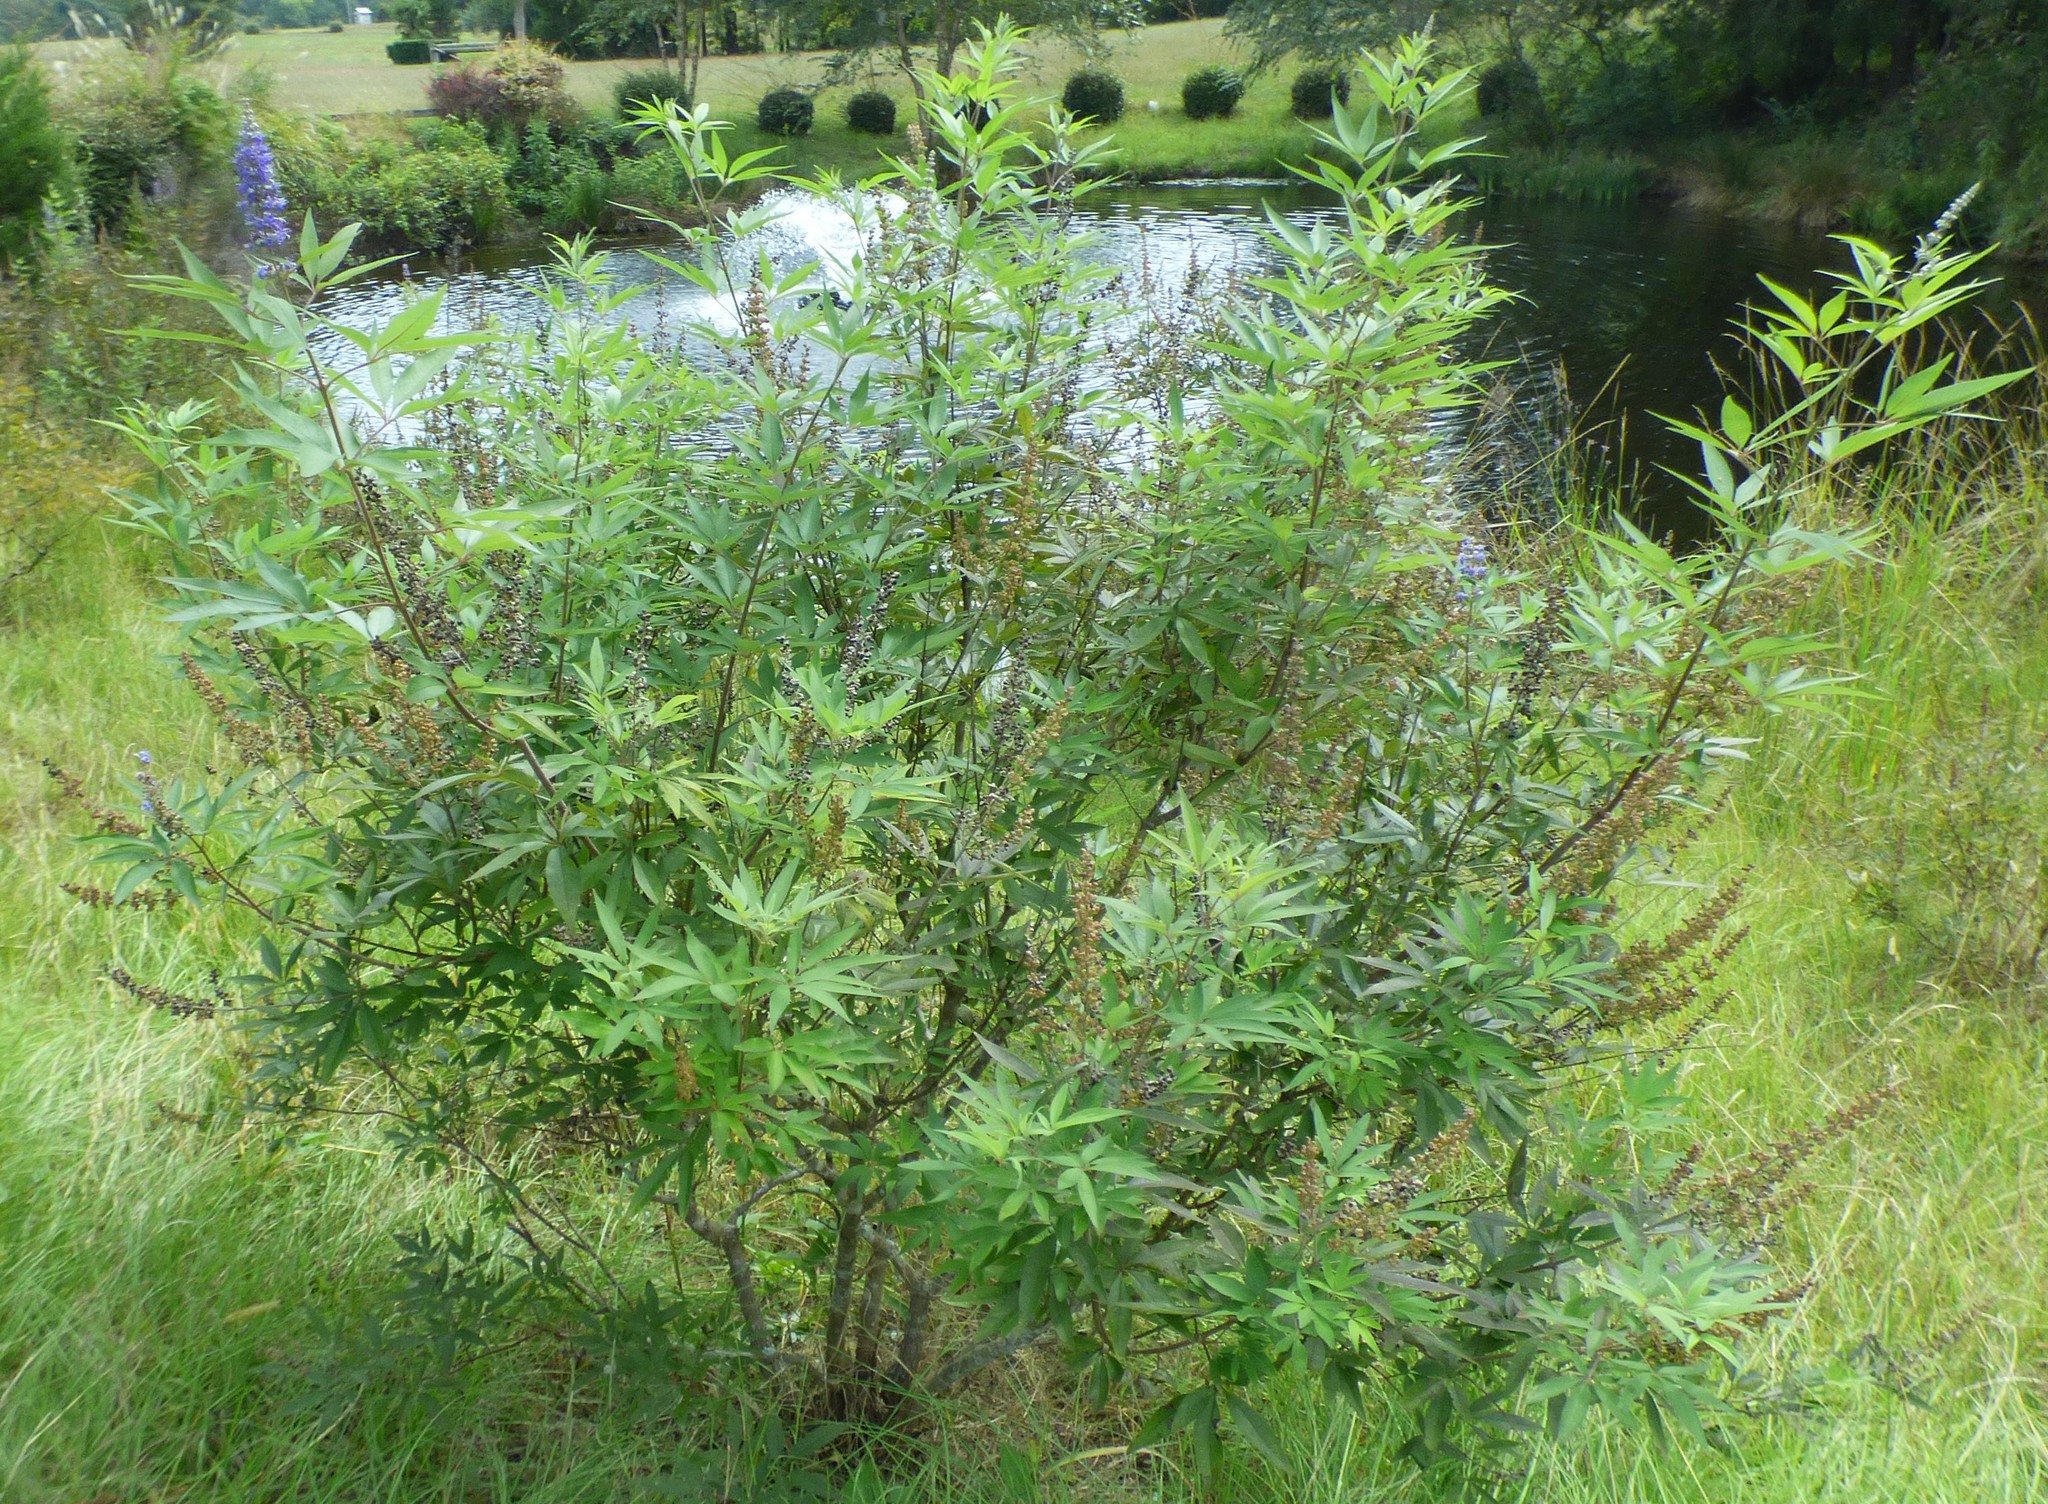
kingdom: Plantae
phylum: Tracheophyta
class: Magnoliopsida
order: Lamiales
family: Lamiaceae
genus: Vitex
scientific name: Vitex agnus-castus
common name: Chasteberry
